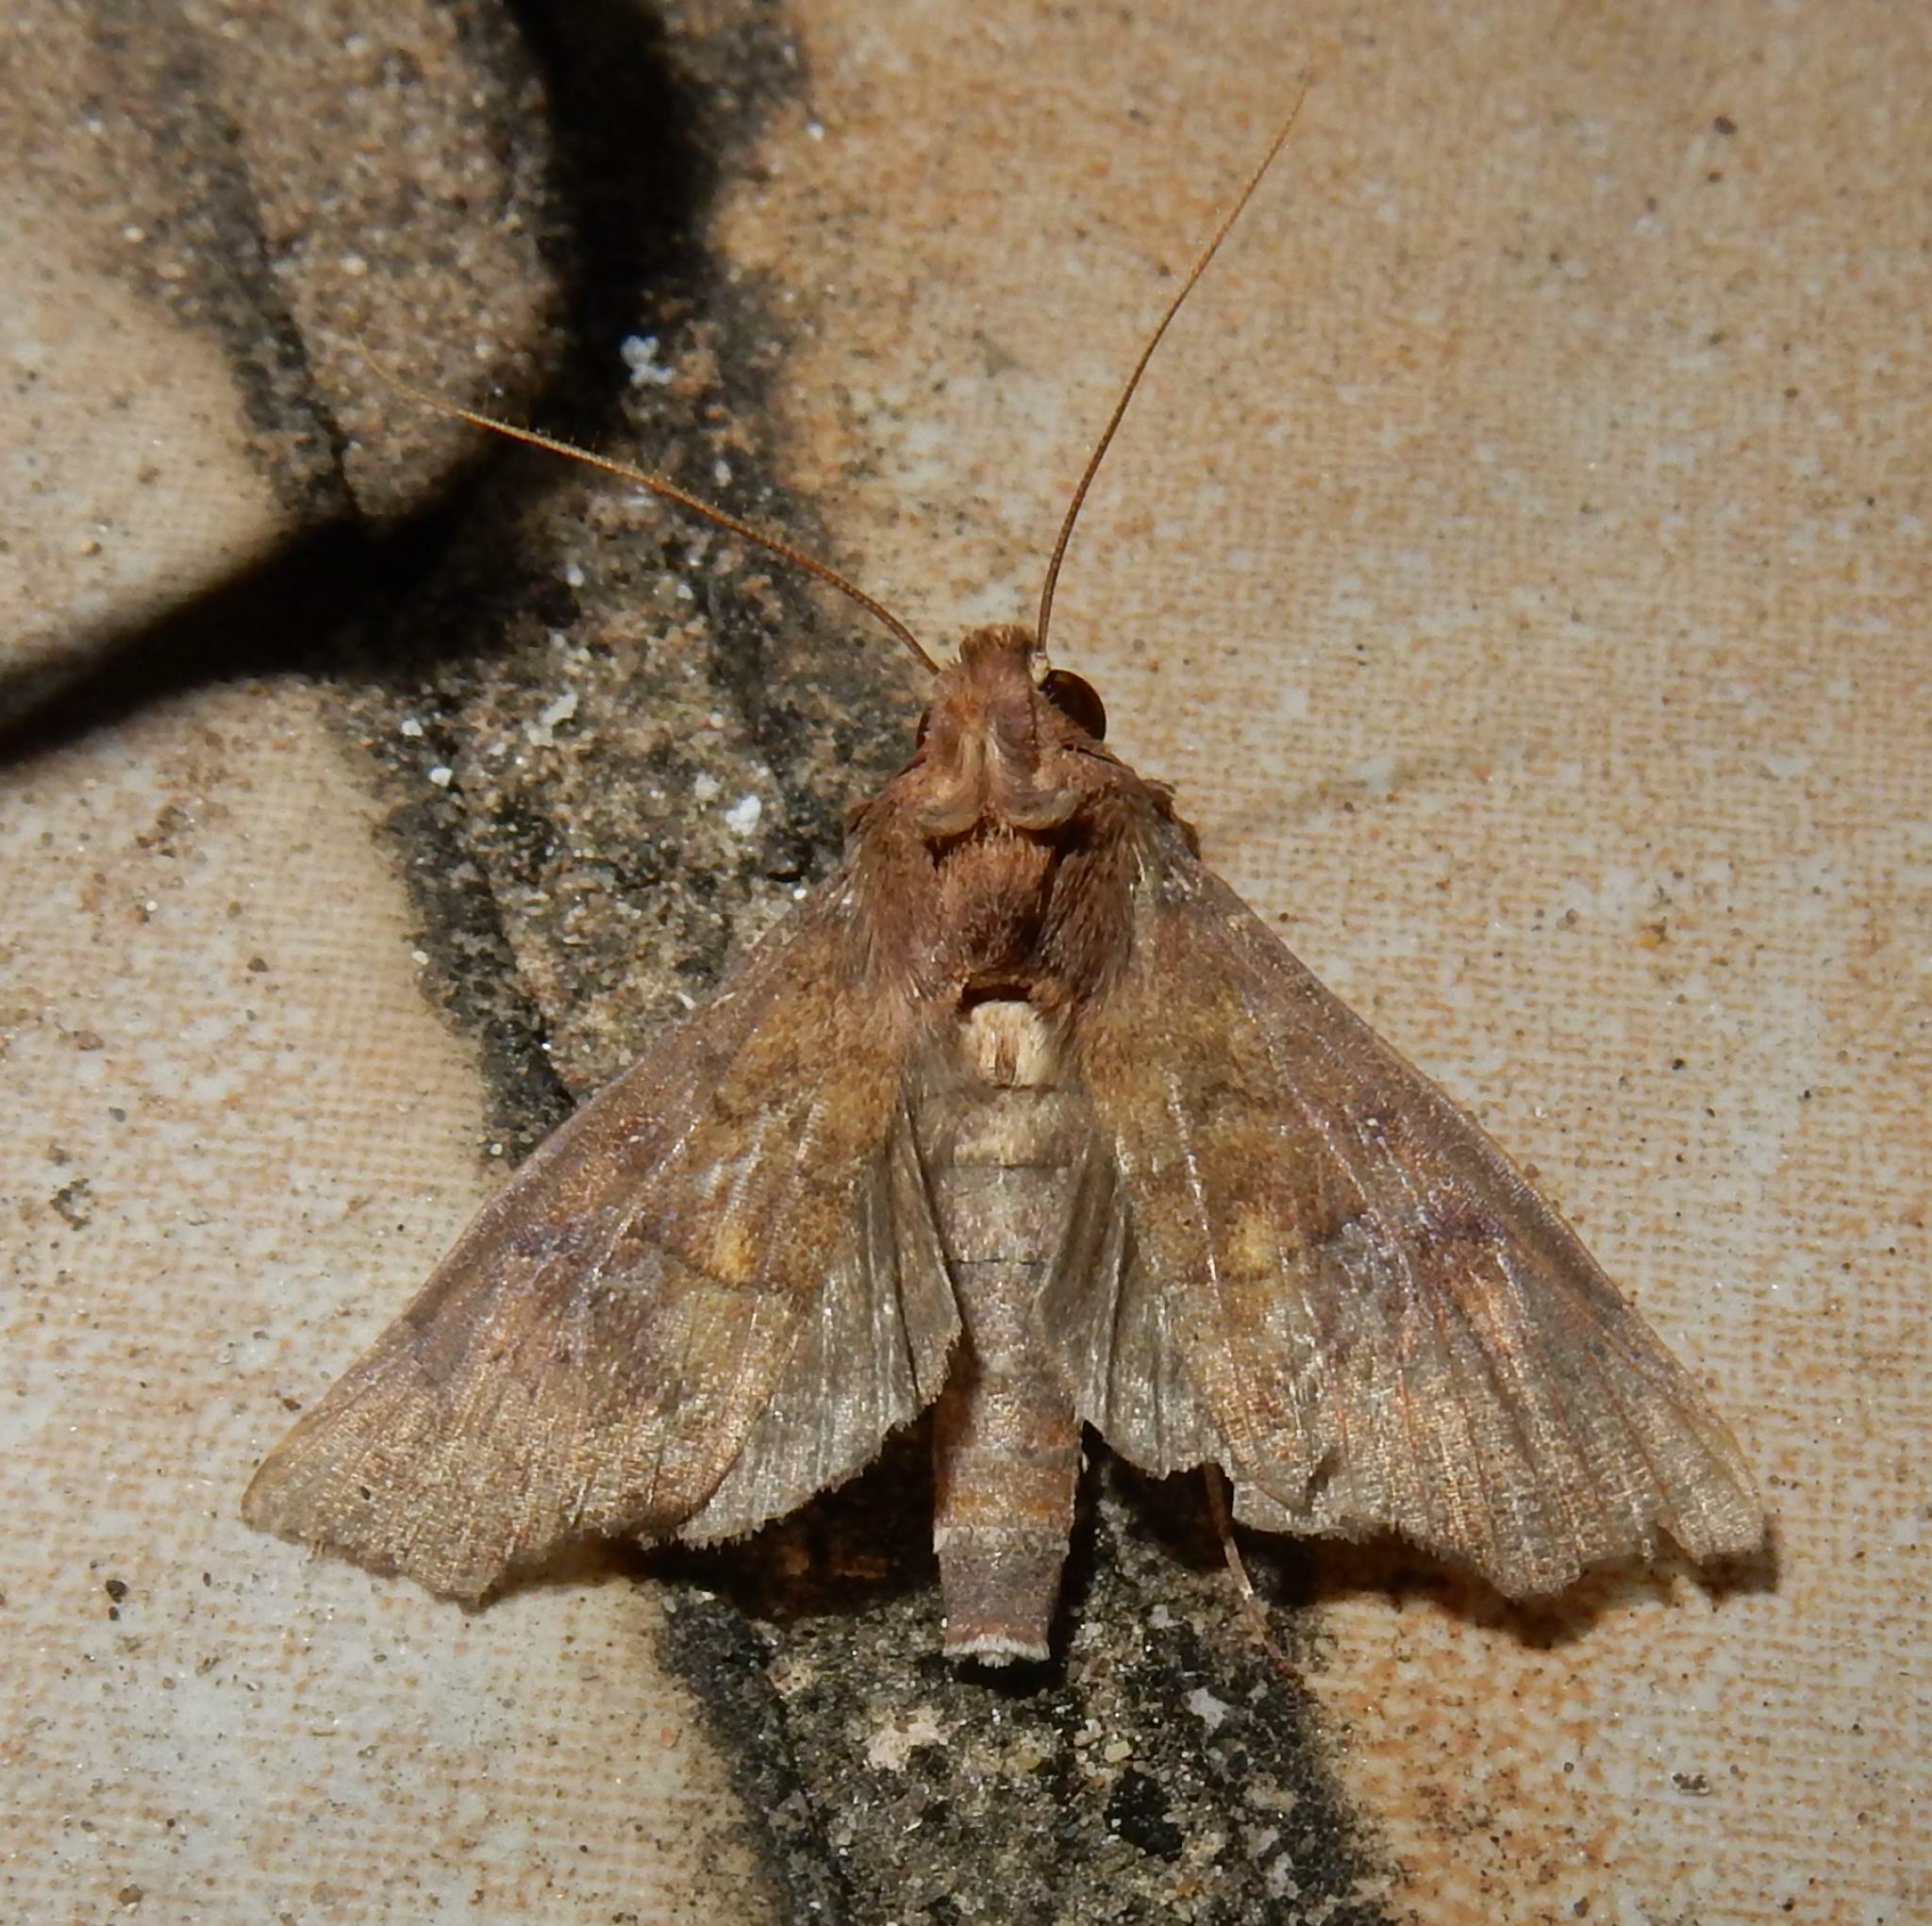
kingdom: Animalia
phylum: Arthropoda
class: Insecta
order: Lepidoptera
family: Erebidae
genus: Anomis
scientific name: Anomis leona
